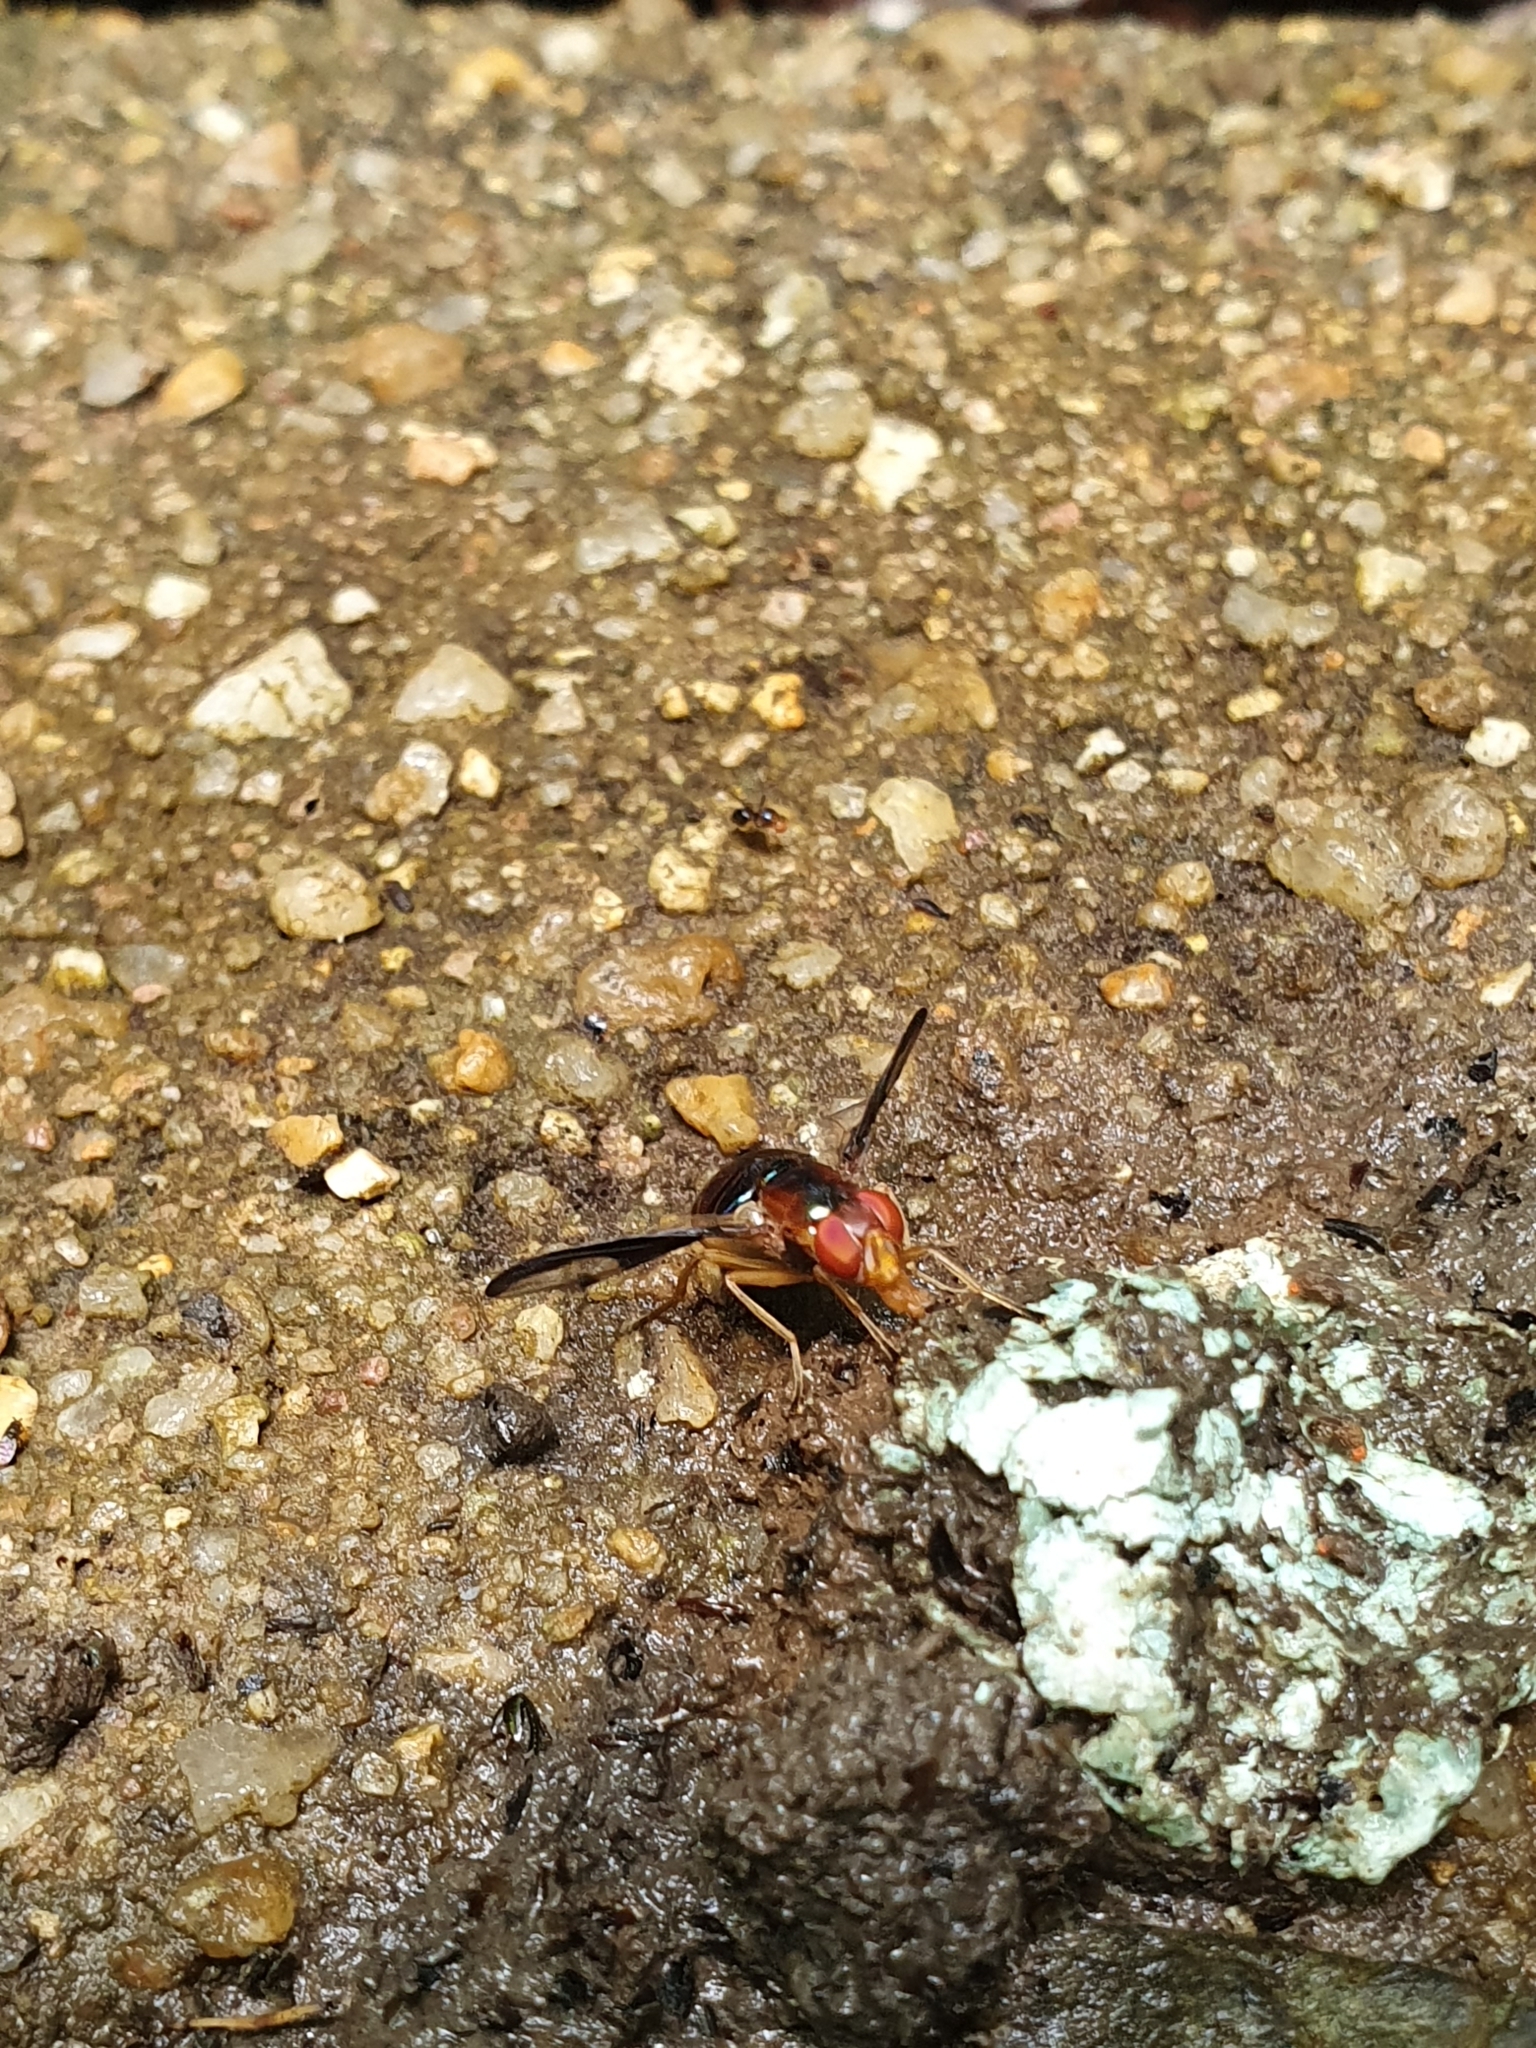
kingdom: Animalia
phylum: Arthropoda
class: Insecta
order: Diptera
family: Platystomatidae
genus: Lamprogaster
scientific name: Lamprogaster stenoparia
